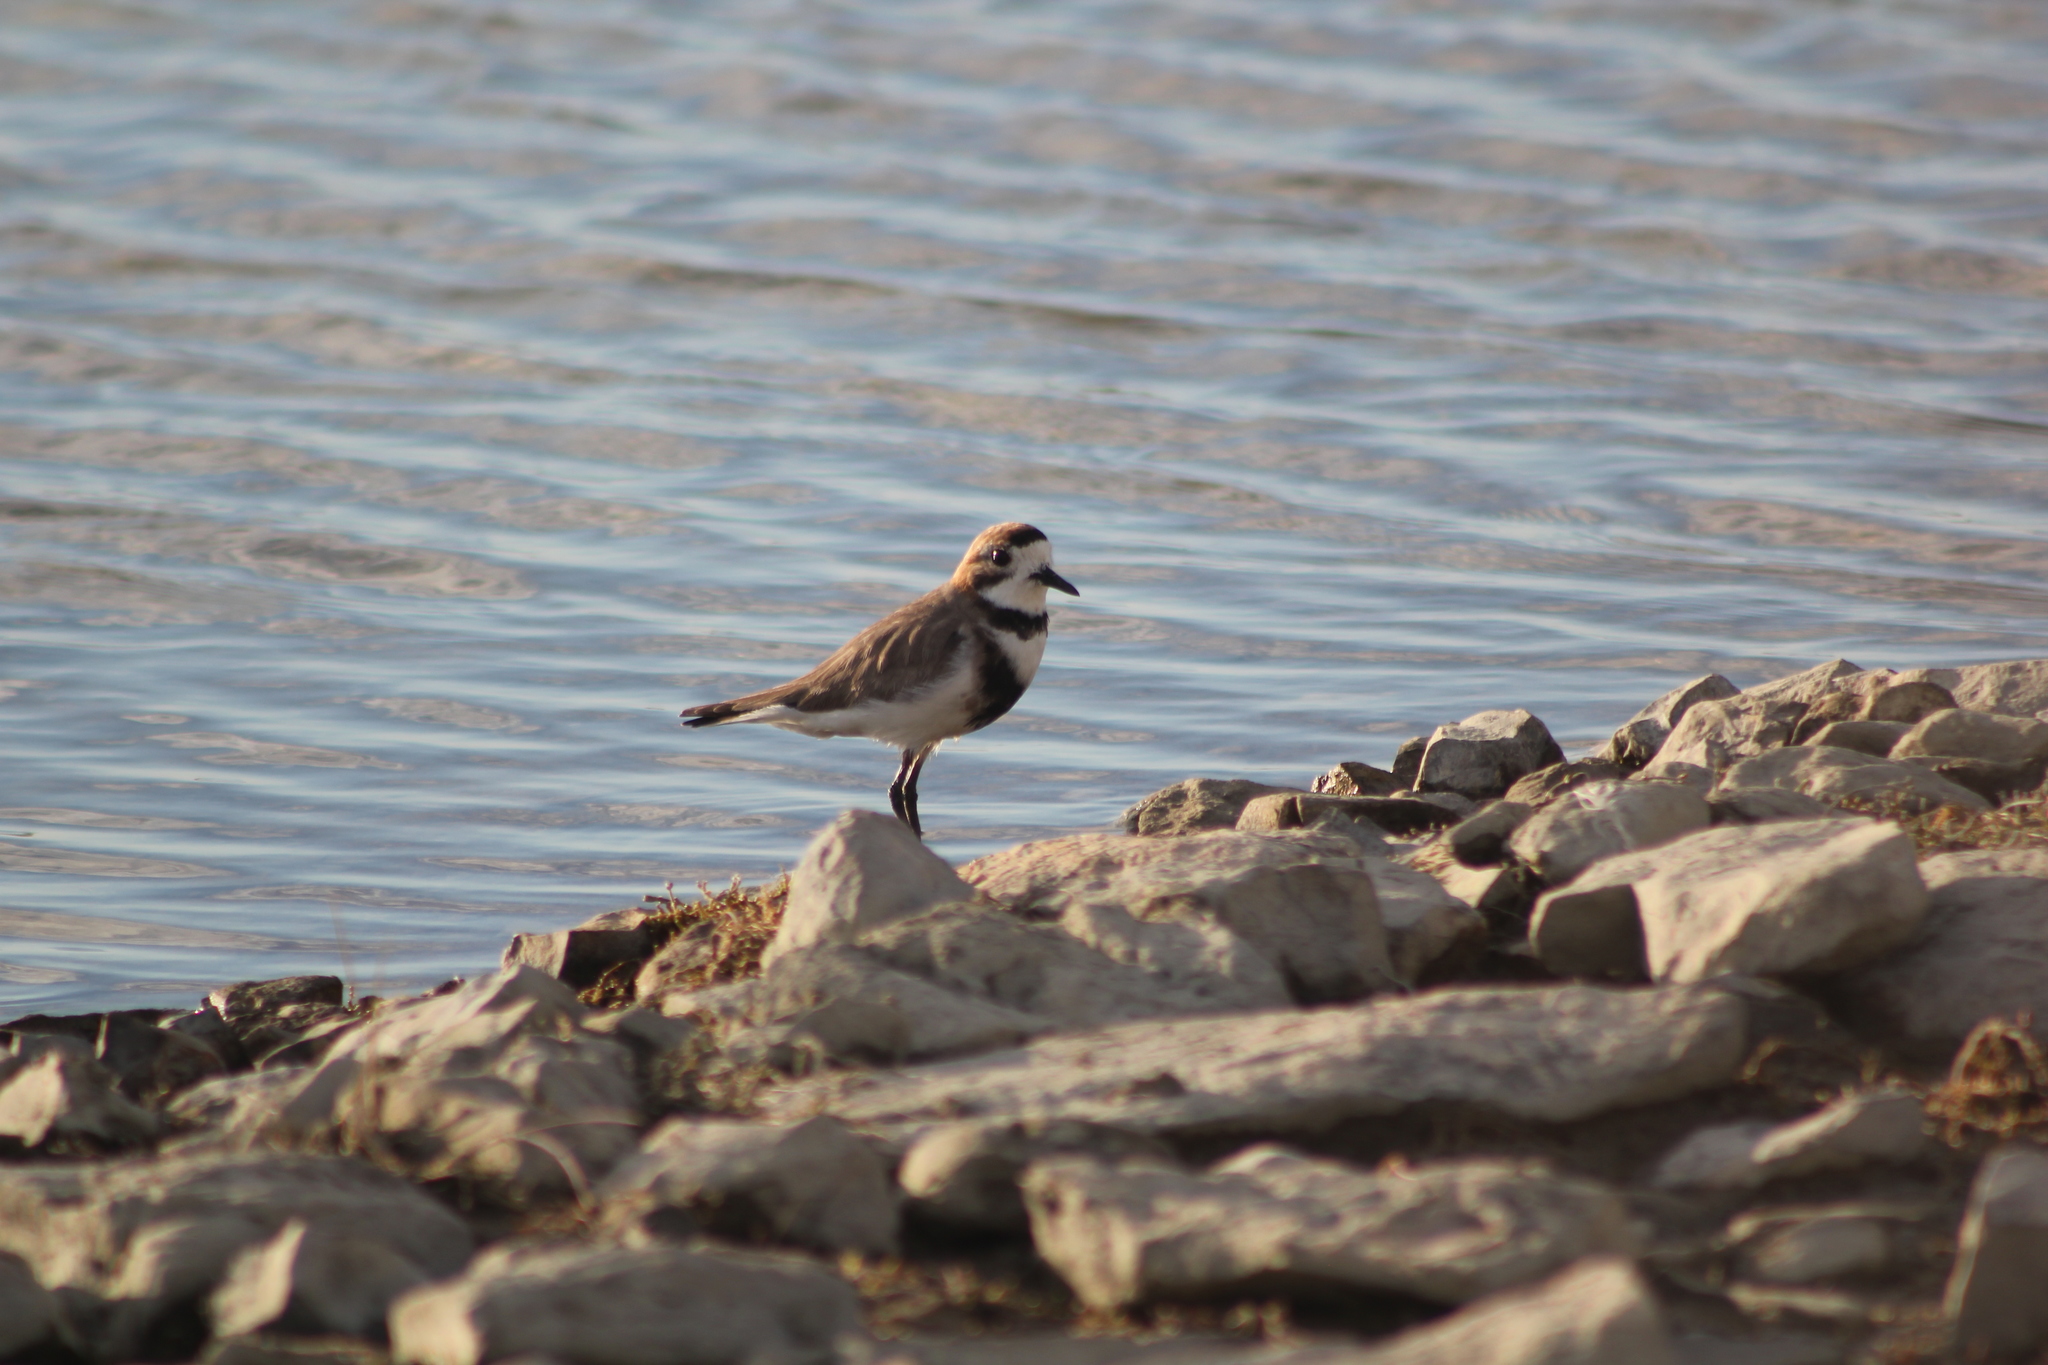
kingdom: Animalia
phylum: Chordata
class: Aves
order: Charadriiformes
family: Charadriidae
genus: Anarhynchus
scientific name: Anarhynchus
